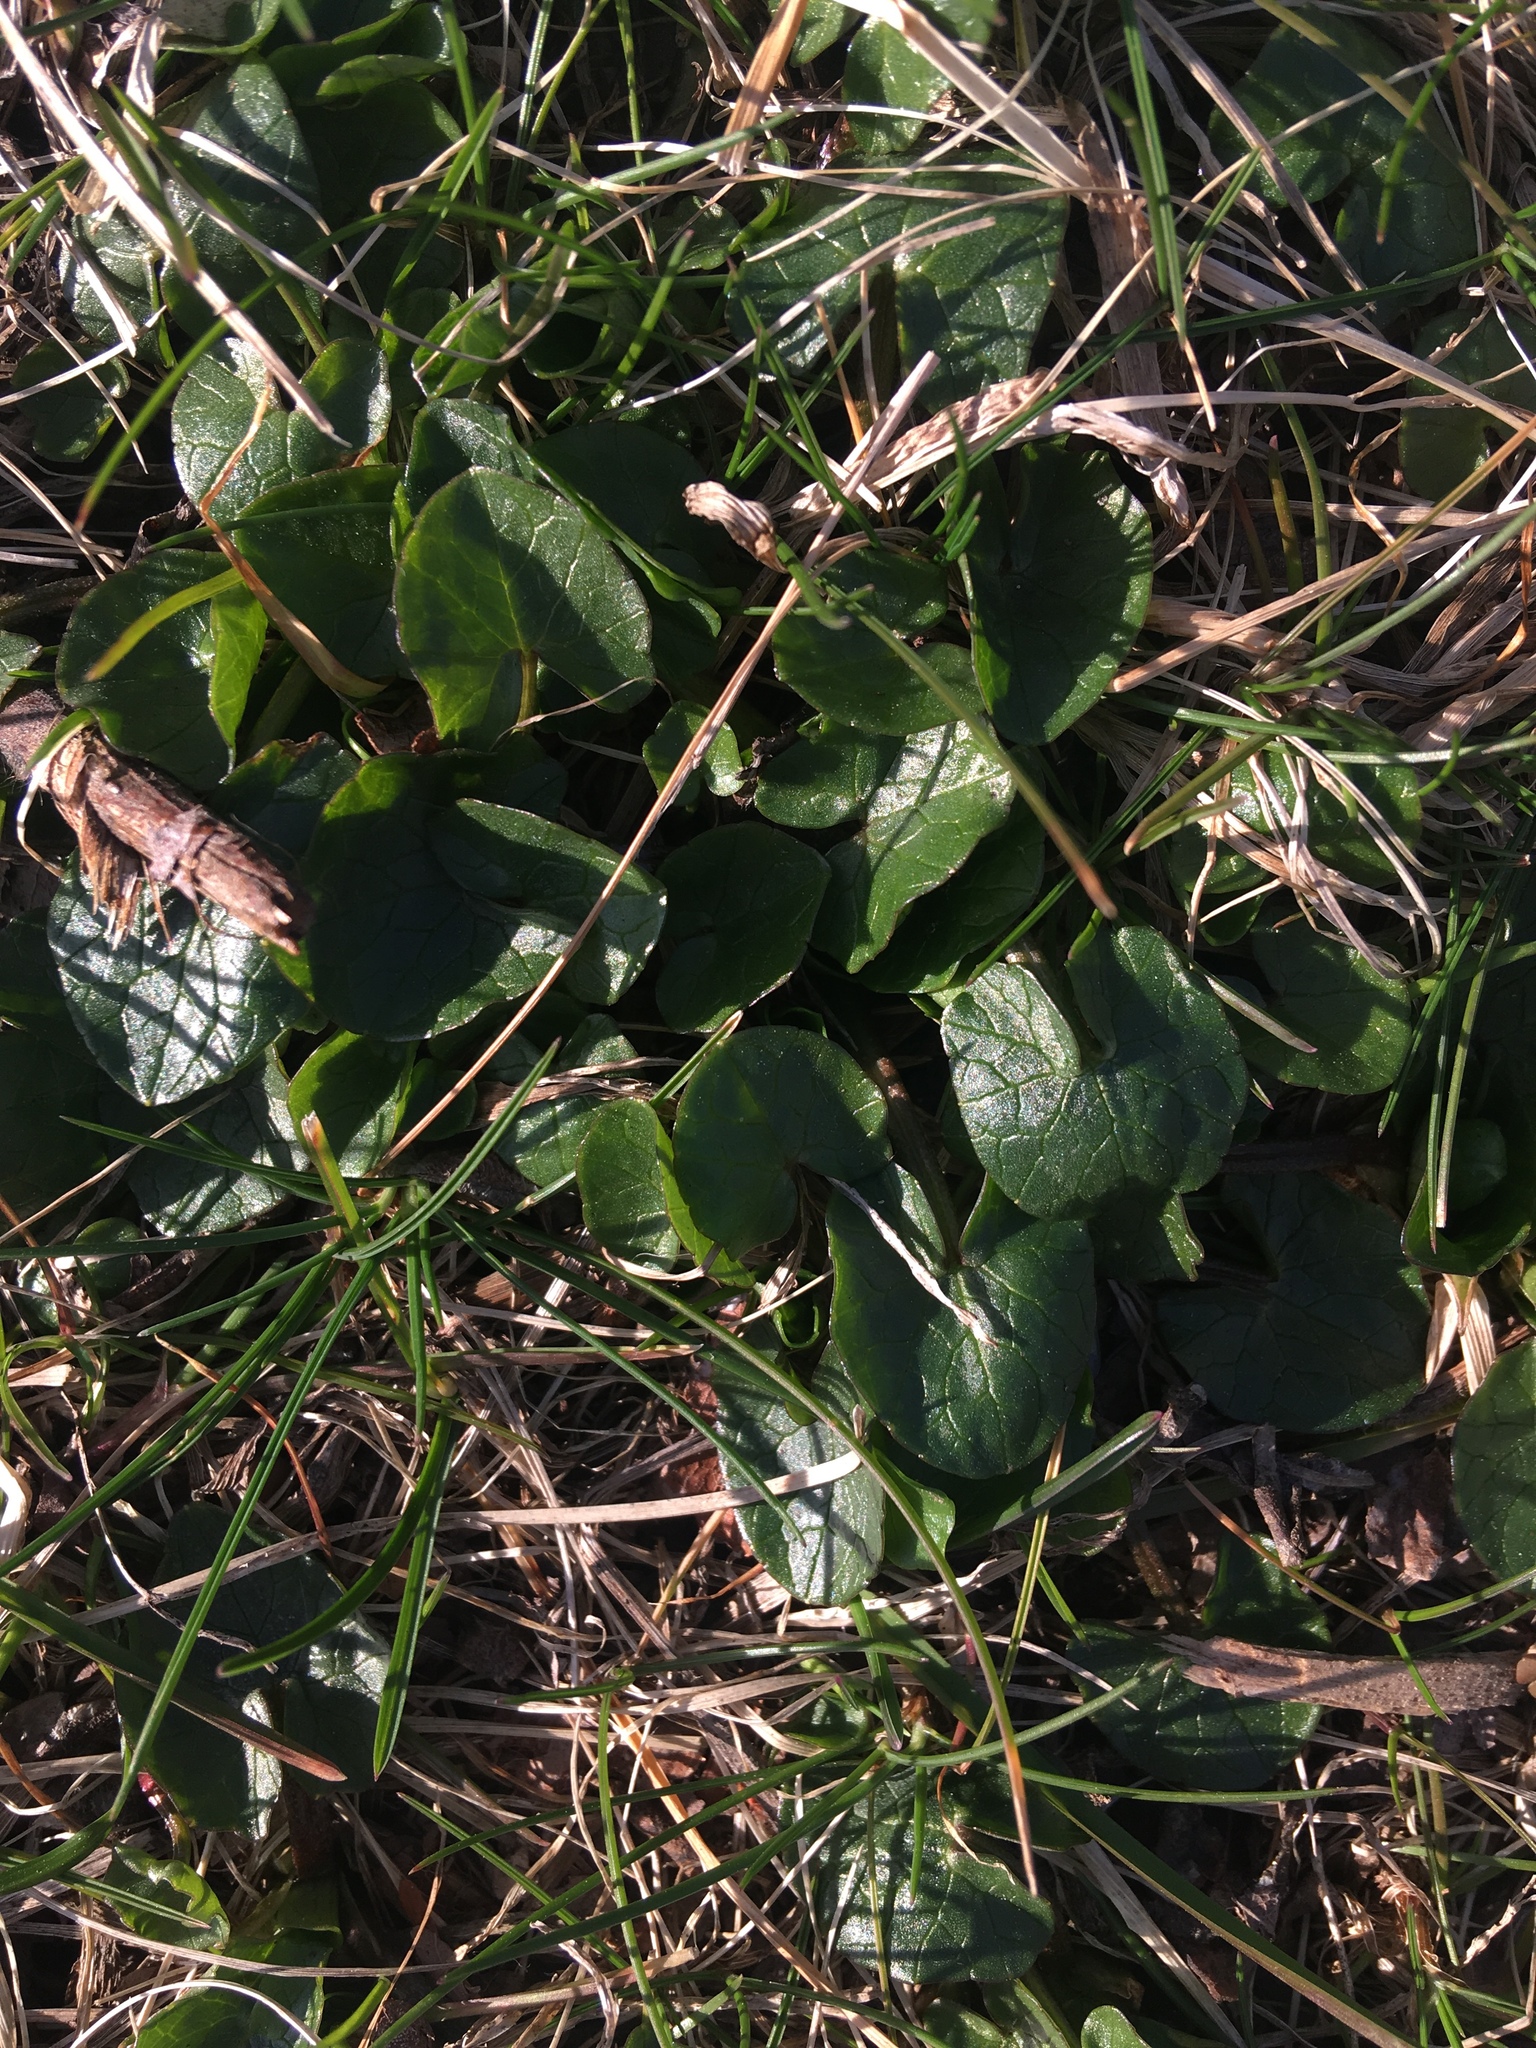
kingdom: Plantae
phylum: Tracheophyta
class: Magnoliopsida
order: Ranunculales
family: Ranunculaceae
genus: Ficaria
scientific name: Ficaria verna
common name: Lesser celandine
